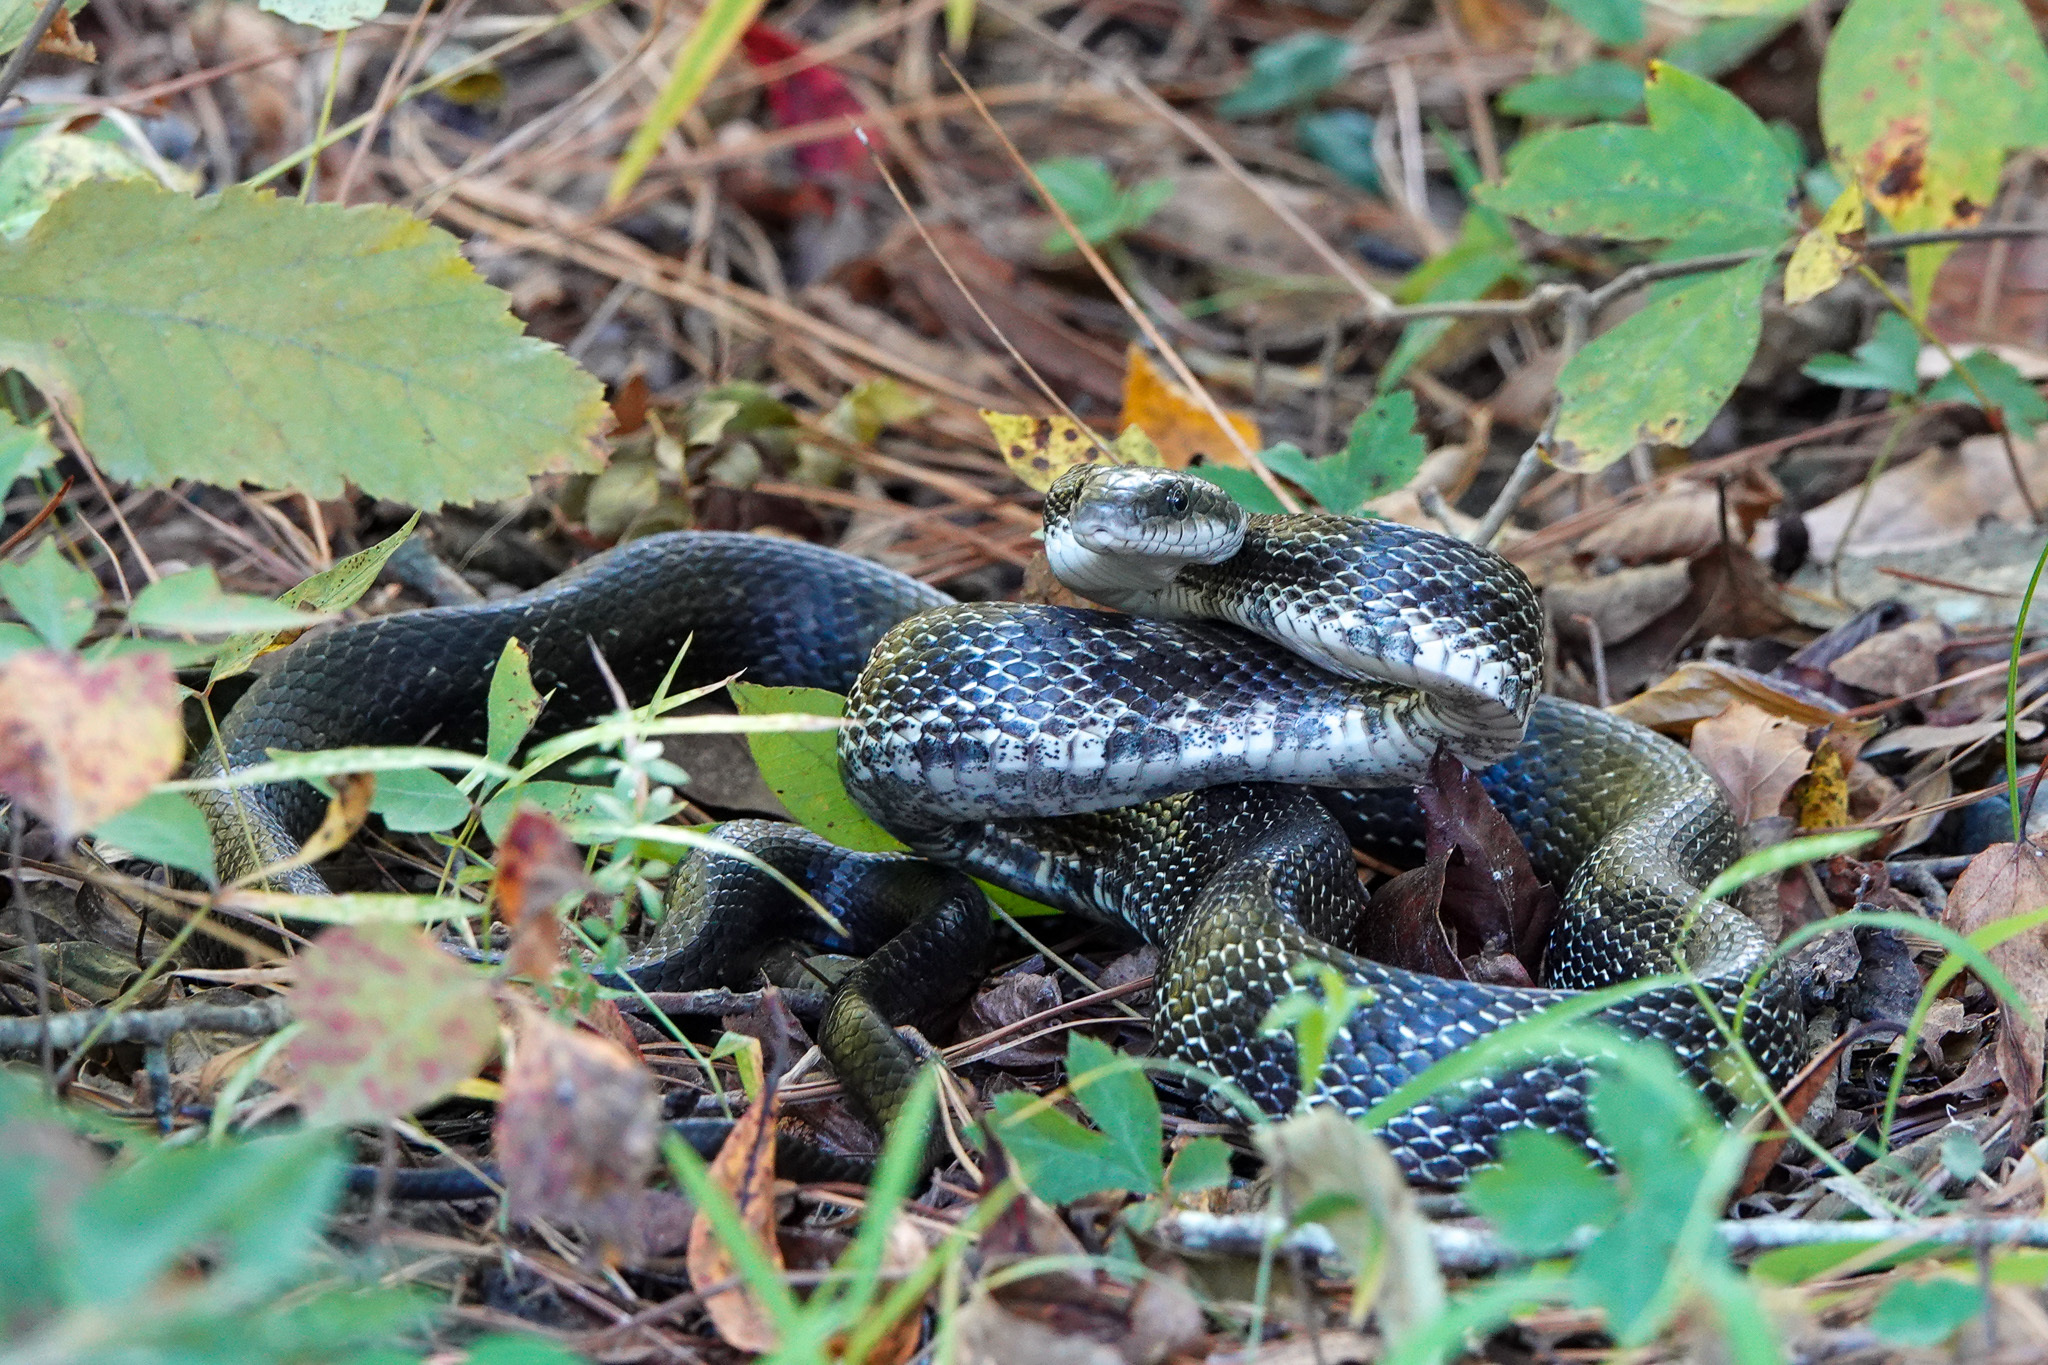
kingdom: Animalia
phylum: Chordata
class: Squamata
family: Colubridae
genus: Pantherophis
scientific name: Pantherophis alleghaniensis
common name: Eastern rat snake
